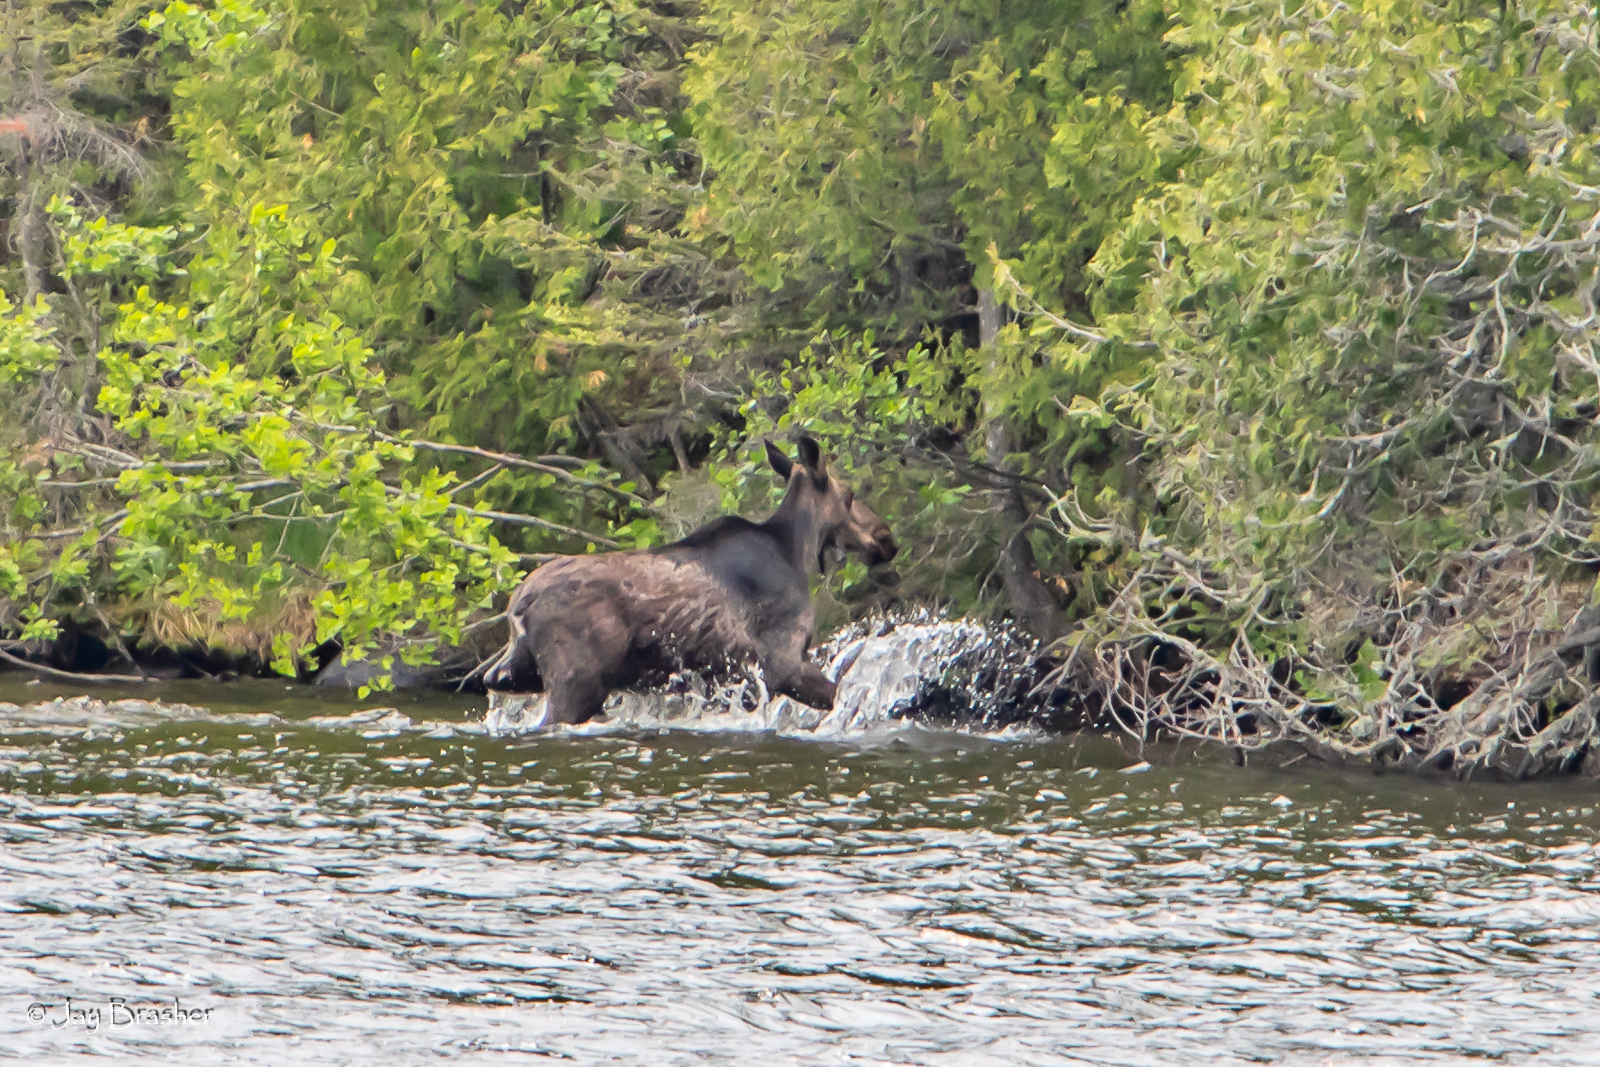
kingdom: Animalia
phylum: Chordata
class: Mammalia
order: Artiodactyla
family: Cervidae
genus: Alces
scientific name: Alces americanus
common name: Moose
